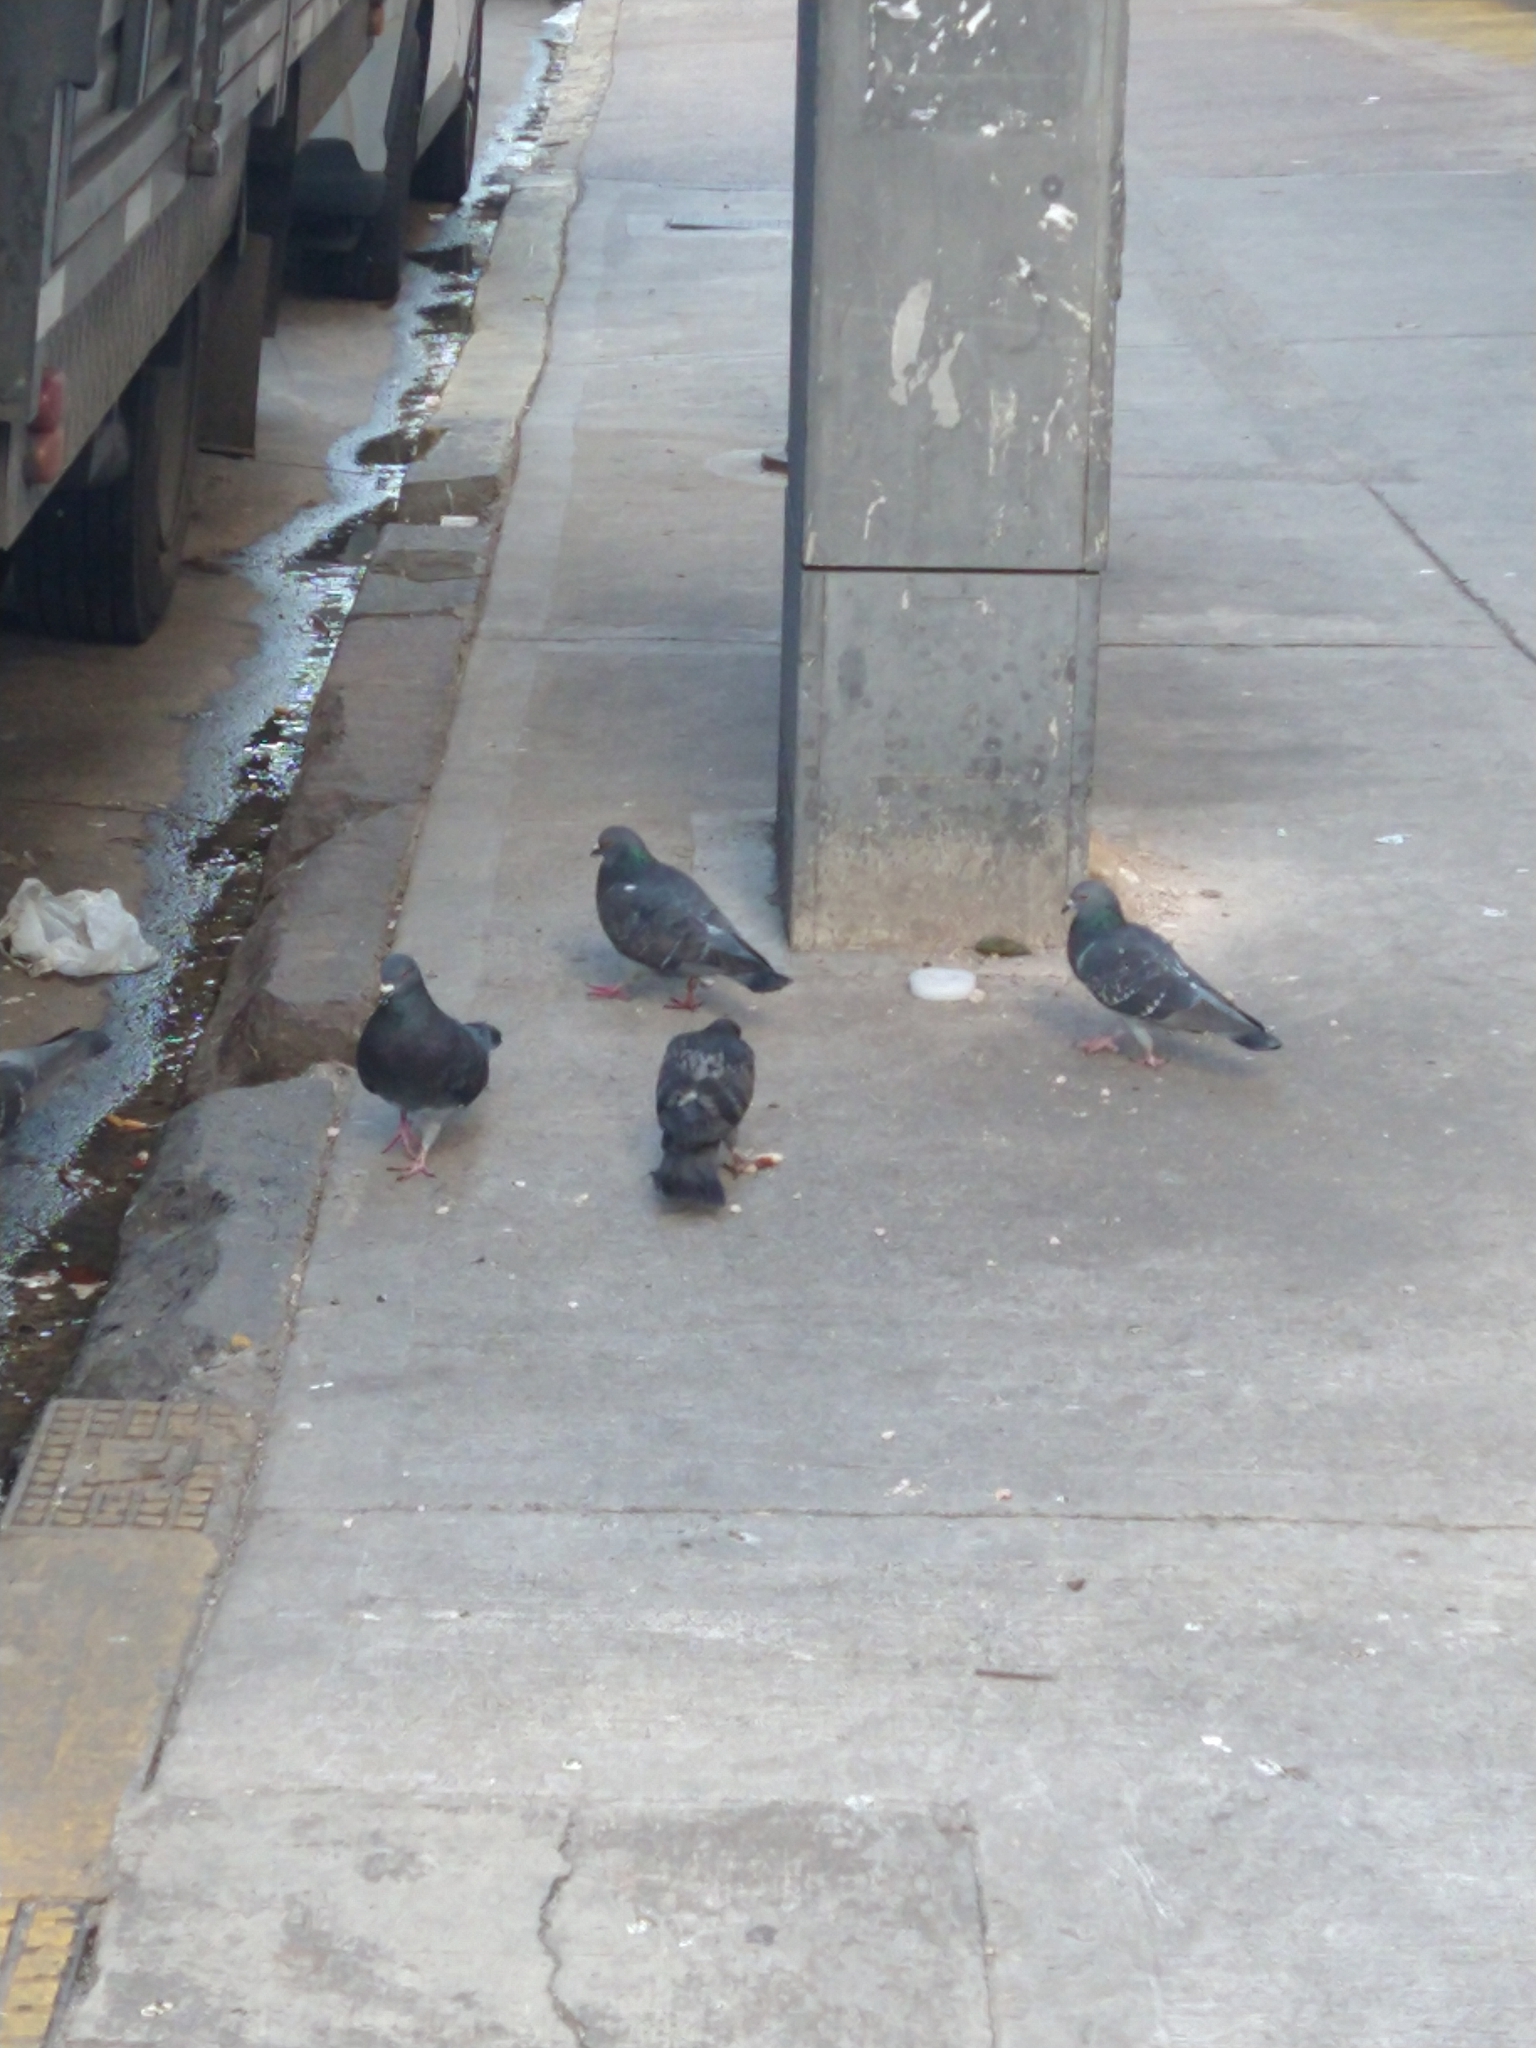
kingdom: Animalia
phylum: Chordata
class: Aves
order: Columbiformes
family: Columbidae
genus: Columba
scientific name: Columba livia
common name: Rock pigeon
